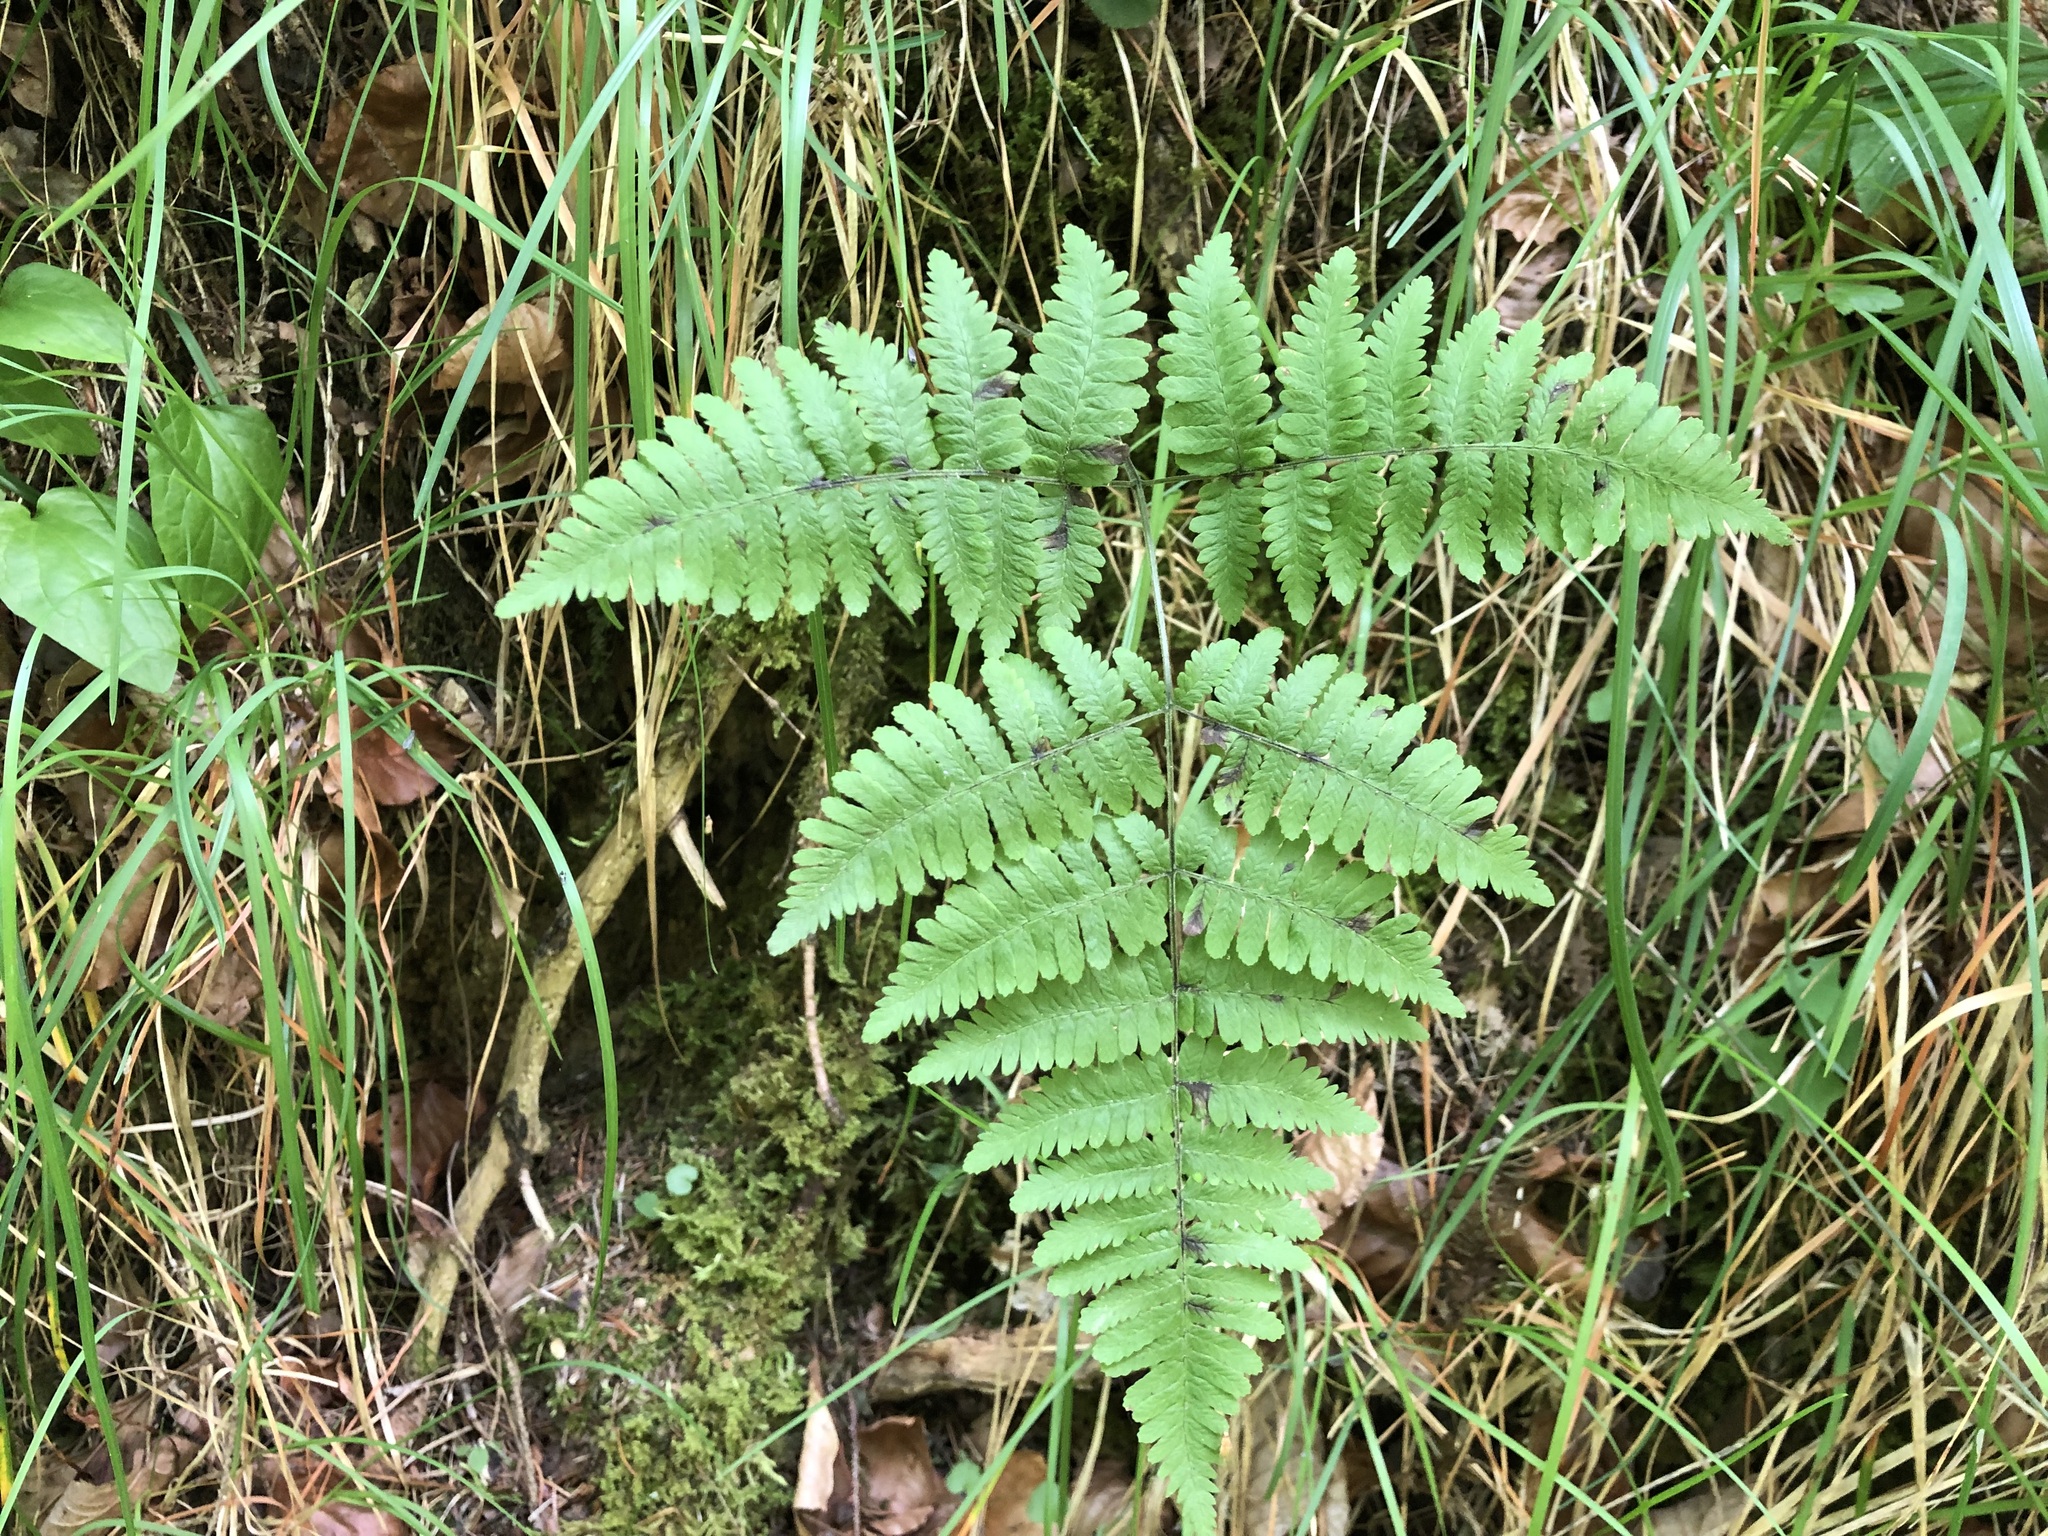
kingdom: Plantae
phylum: Tracheophyta
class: Polypodiopsida
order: Polypodiales
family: Cystopteridaceae
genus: Gymnocarpium
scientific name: Gymnocarpium robertianum
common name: Limestone fern
